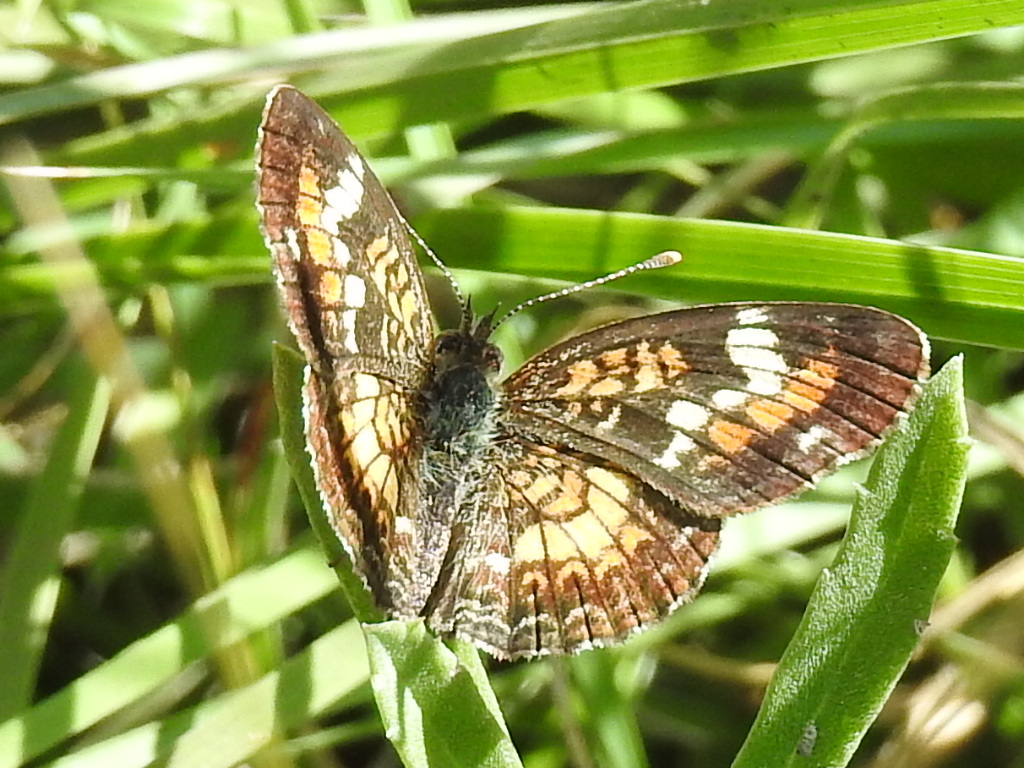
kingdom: Animalia
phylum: Arthropoda
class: Insecta
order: Lepidoptera
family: Nymphalidae
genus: Phyciodes
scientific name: Phyciodes phaon
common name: Phaon crescent
